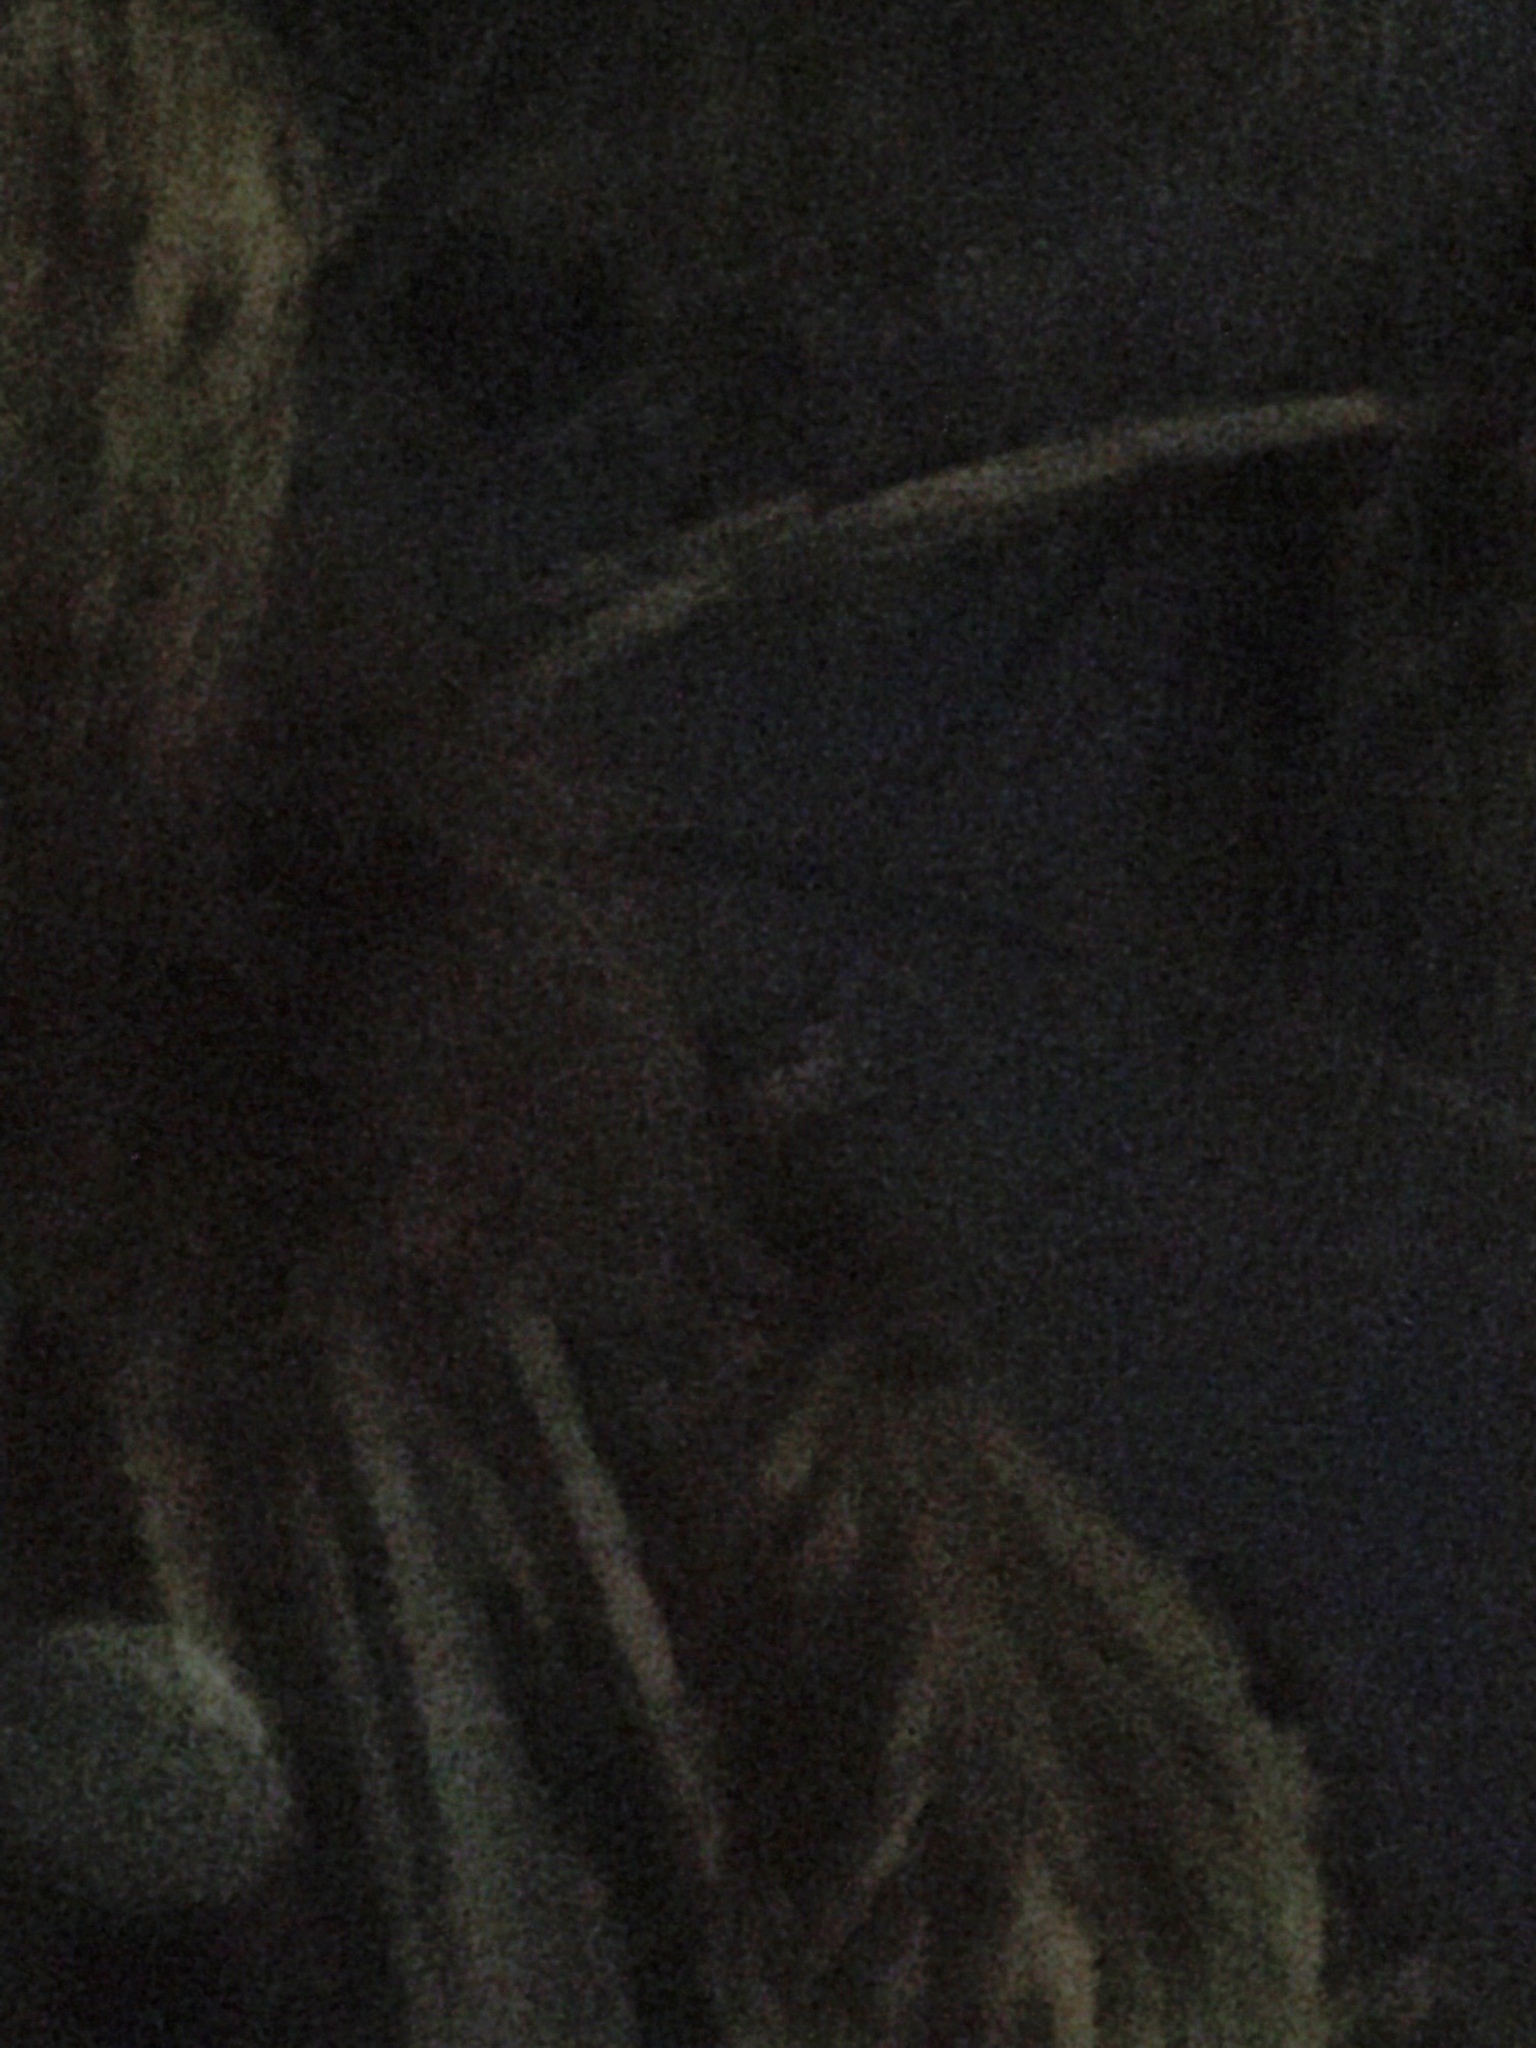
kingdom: Animalia
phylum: Chordata
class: Aves
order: Strigiformes
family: Strigidae
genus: Pseudoscops
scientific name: Pseudoscops clamator
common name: Striped owl
